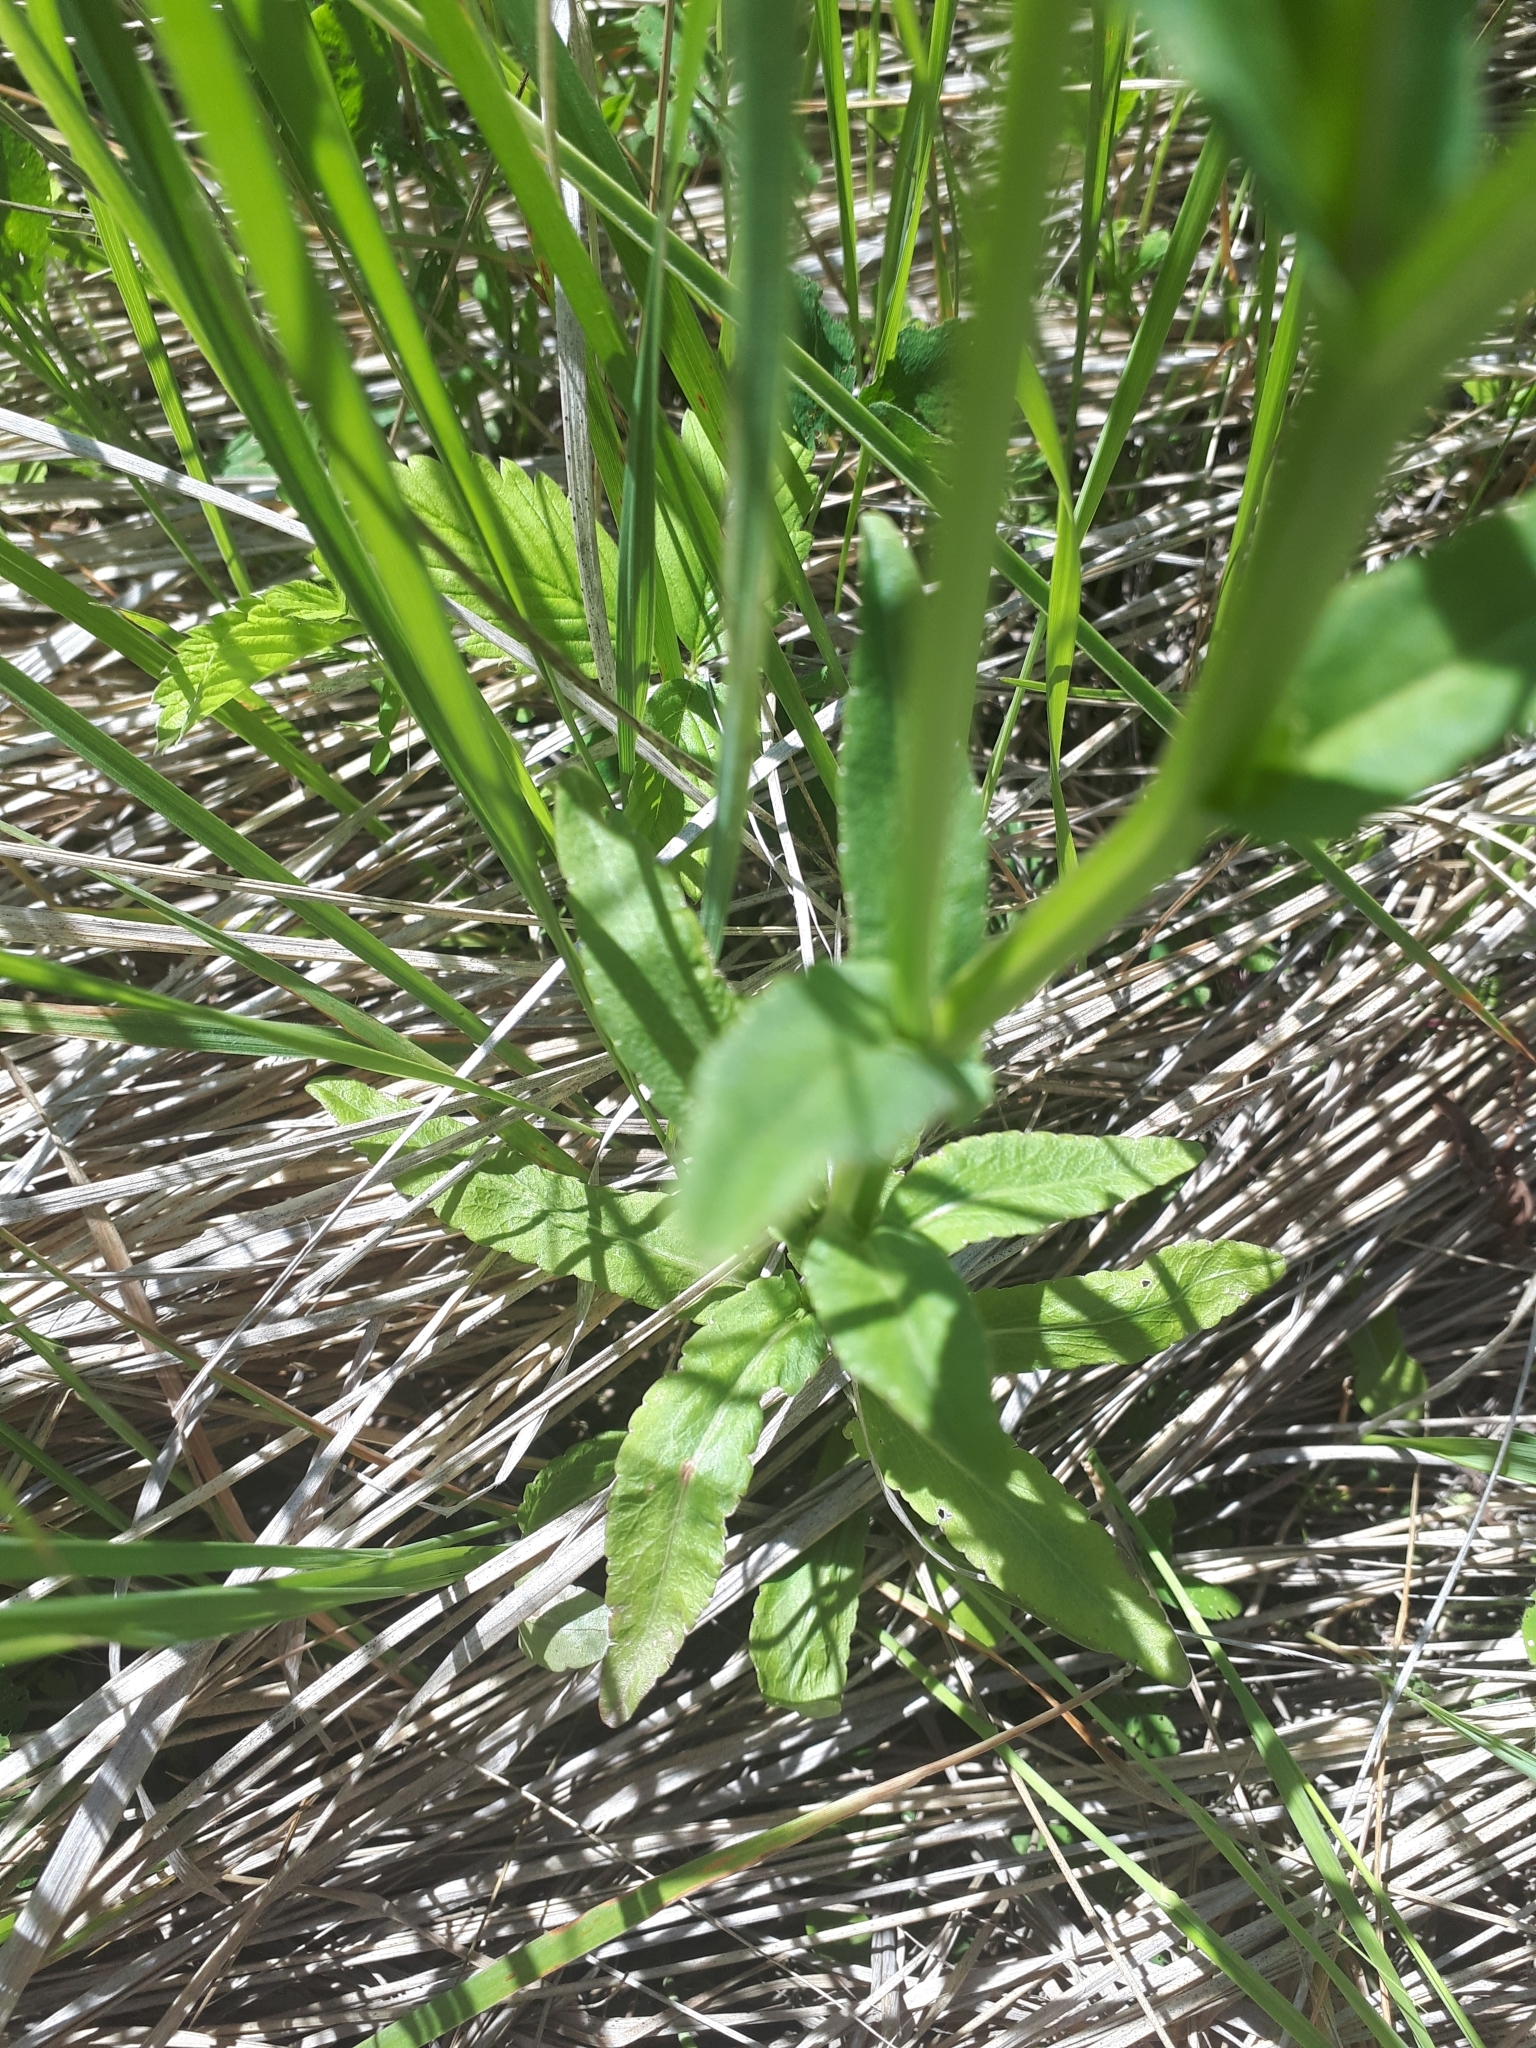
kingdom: Plantae
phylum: Tracheophyta
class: Magnoliopsida
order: Asterales
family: Campanulaceae
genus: Campanula
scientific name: Campanula patula
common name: Spreading bellflower
